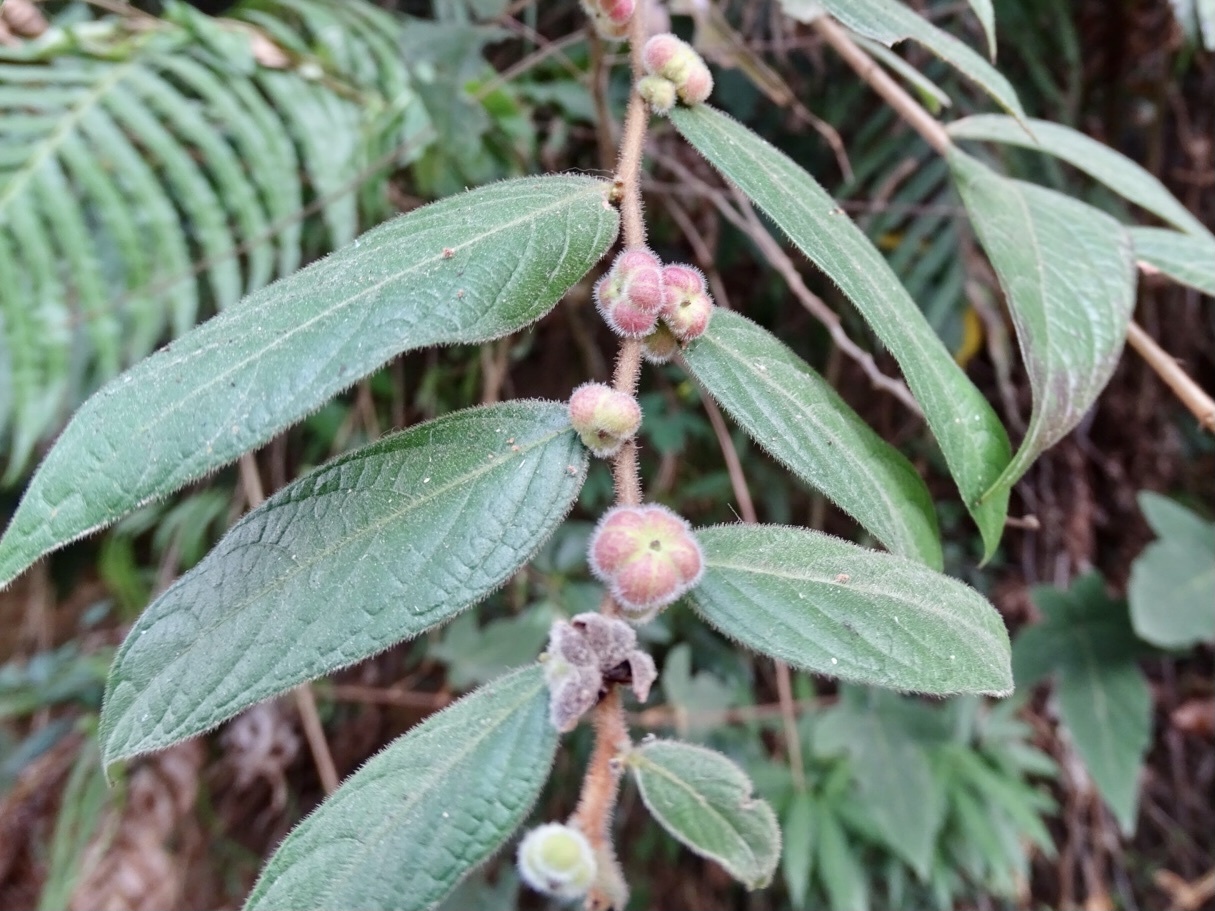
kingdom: Plantae
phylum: Tracheophyta
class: Magnoliopsida
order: Malpighiales
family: Phyllanthaceae
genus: Glochidion
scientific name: Glochidion eriocarpum
